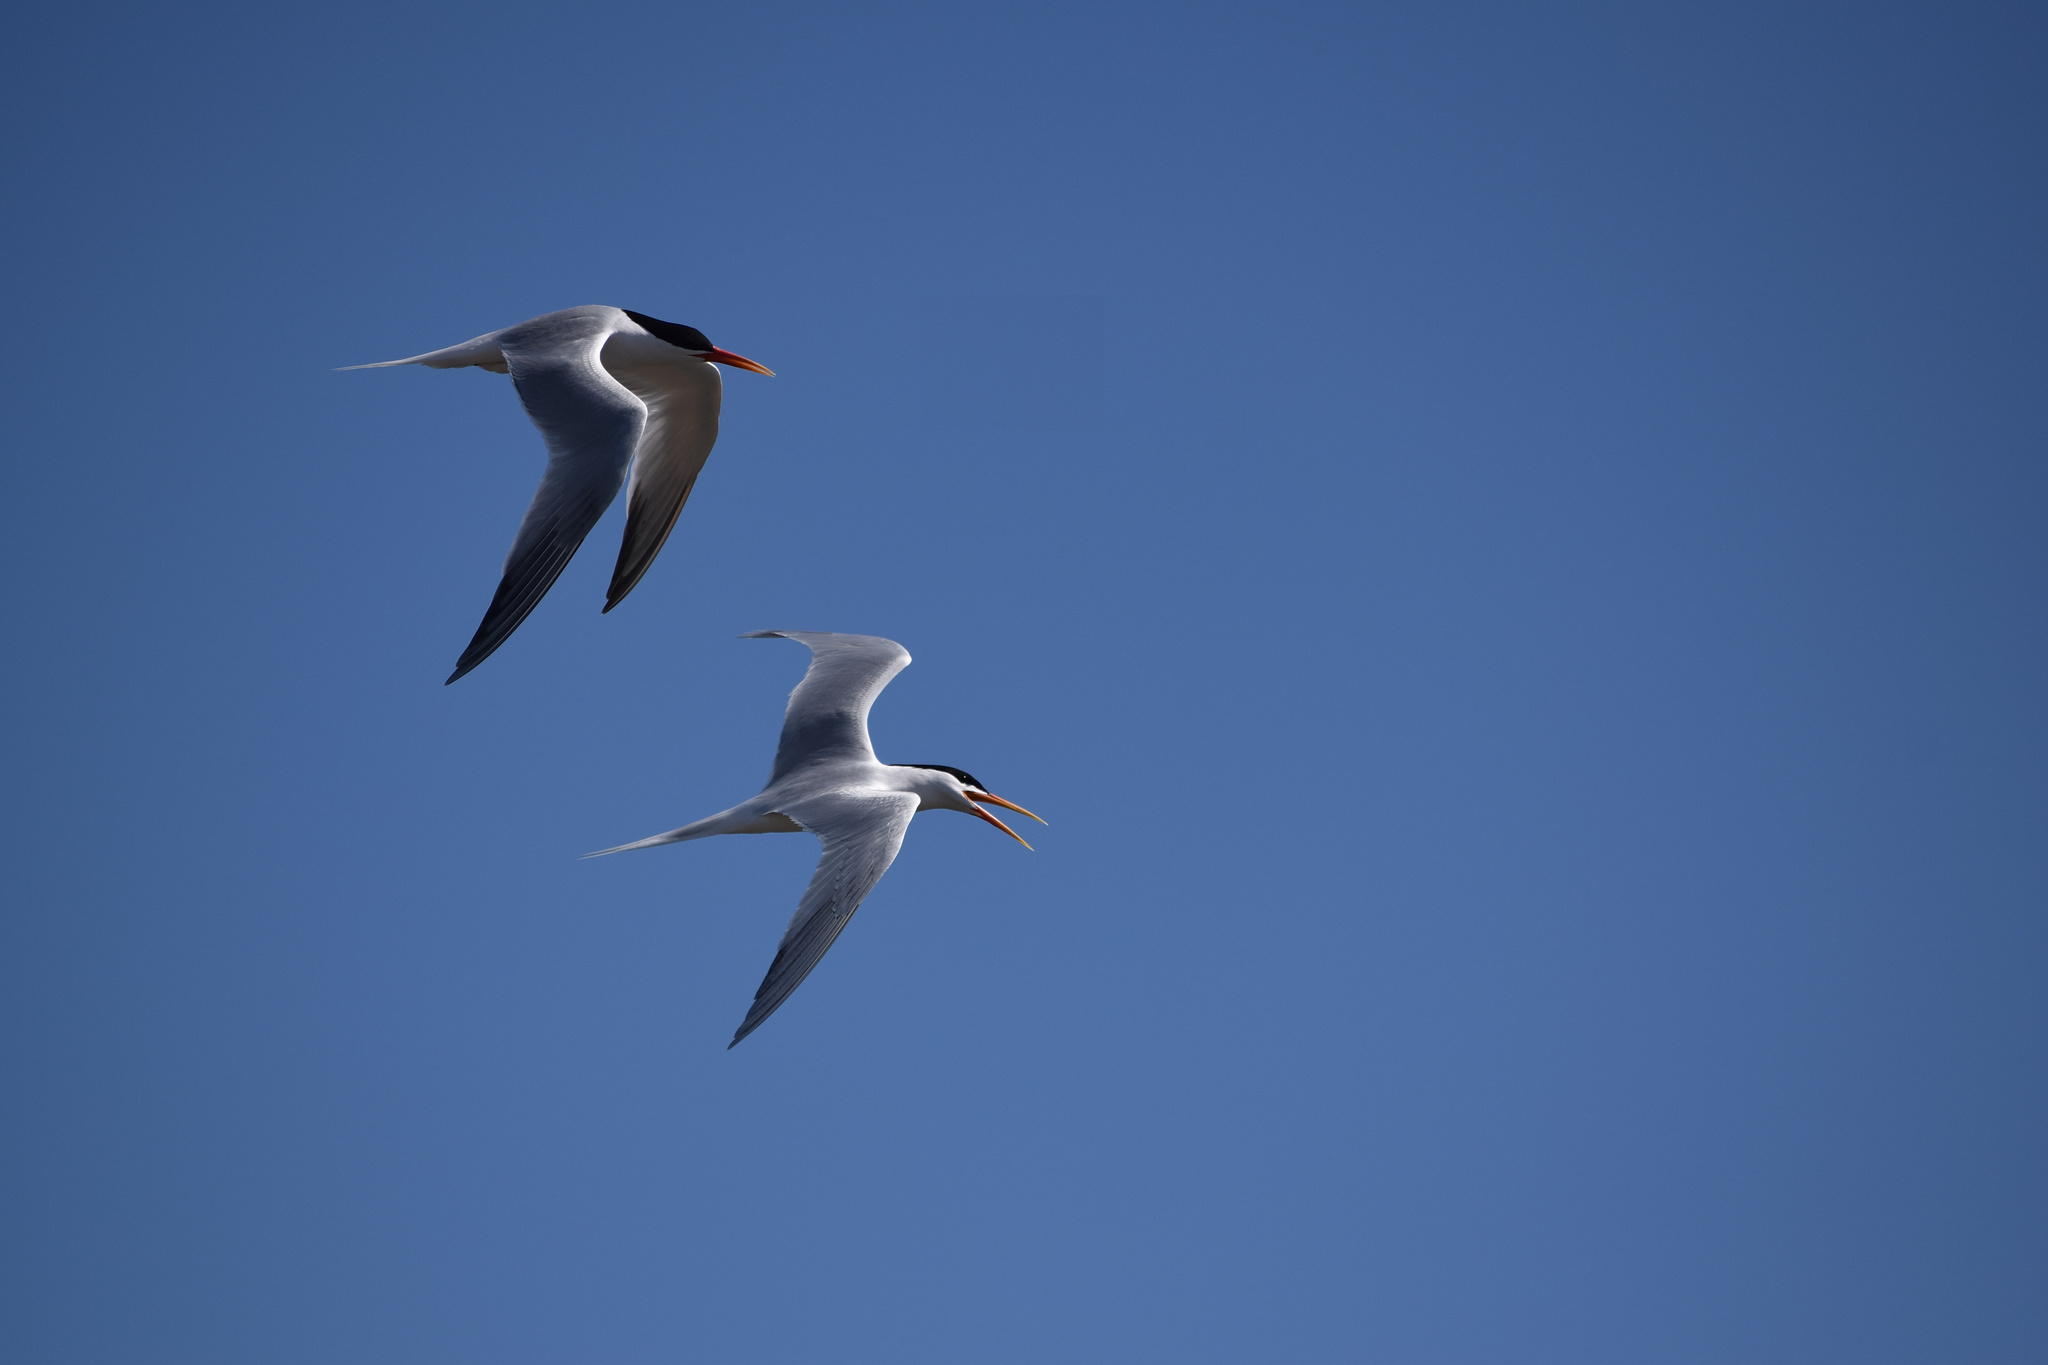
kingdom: Animalia
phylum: Chordata
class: Aves
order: Charadriiformes
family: Laridae
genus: Thalasseus
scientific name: Thalasseus elegans
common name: Elegant tern
